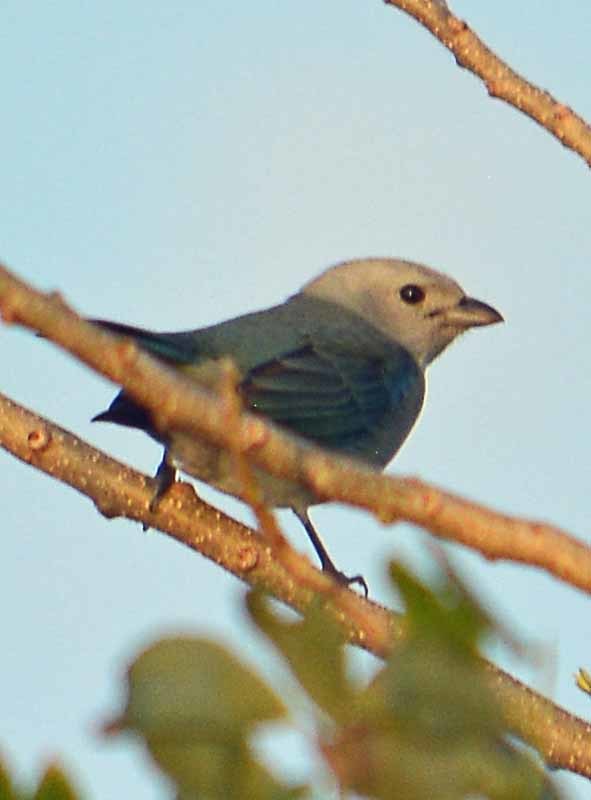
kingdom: Animalia
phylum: Chordata
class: Aves
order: Passeriformes
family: Thraupidae
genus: Thraupis
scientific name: Thraupis episcopus
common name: Blue-grey tanager
